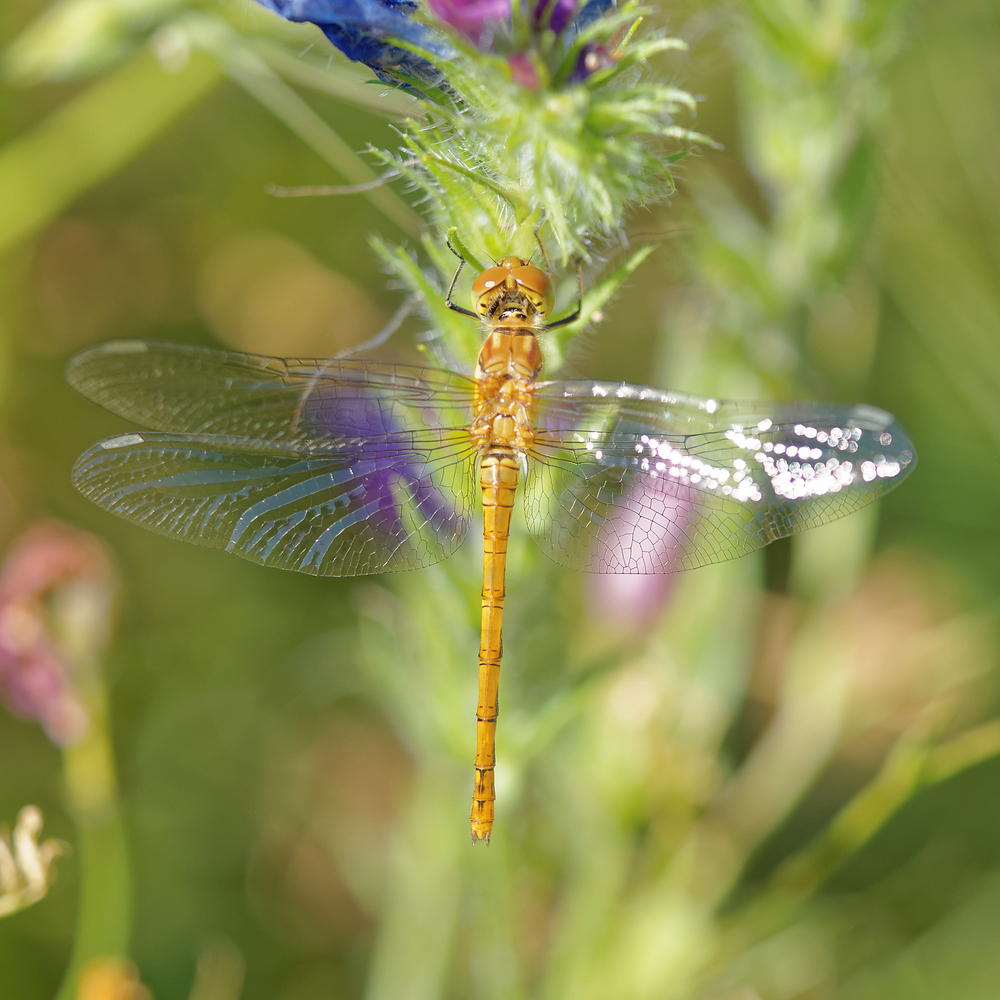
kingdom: Animalia
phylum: Arthropoda
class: Insecta
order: Odonata
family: Libellulidae
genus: Sympetrum
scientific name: Sympetrum striolatum
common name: Common darter
